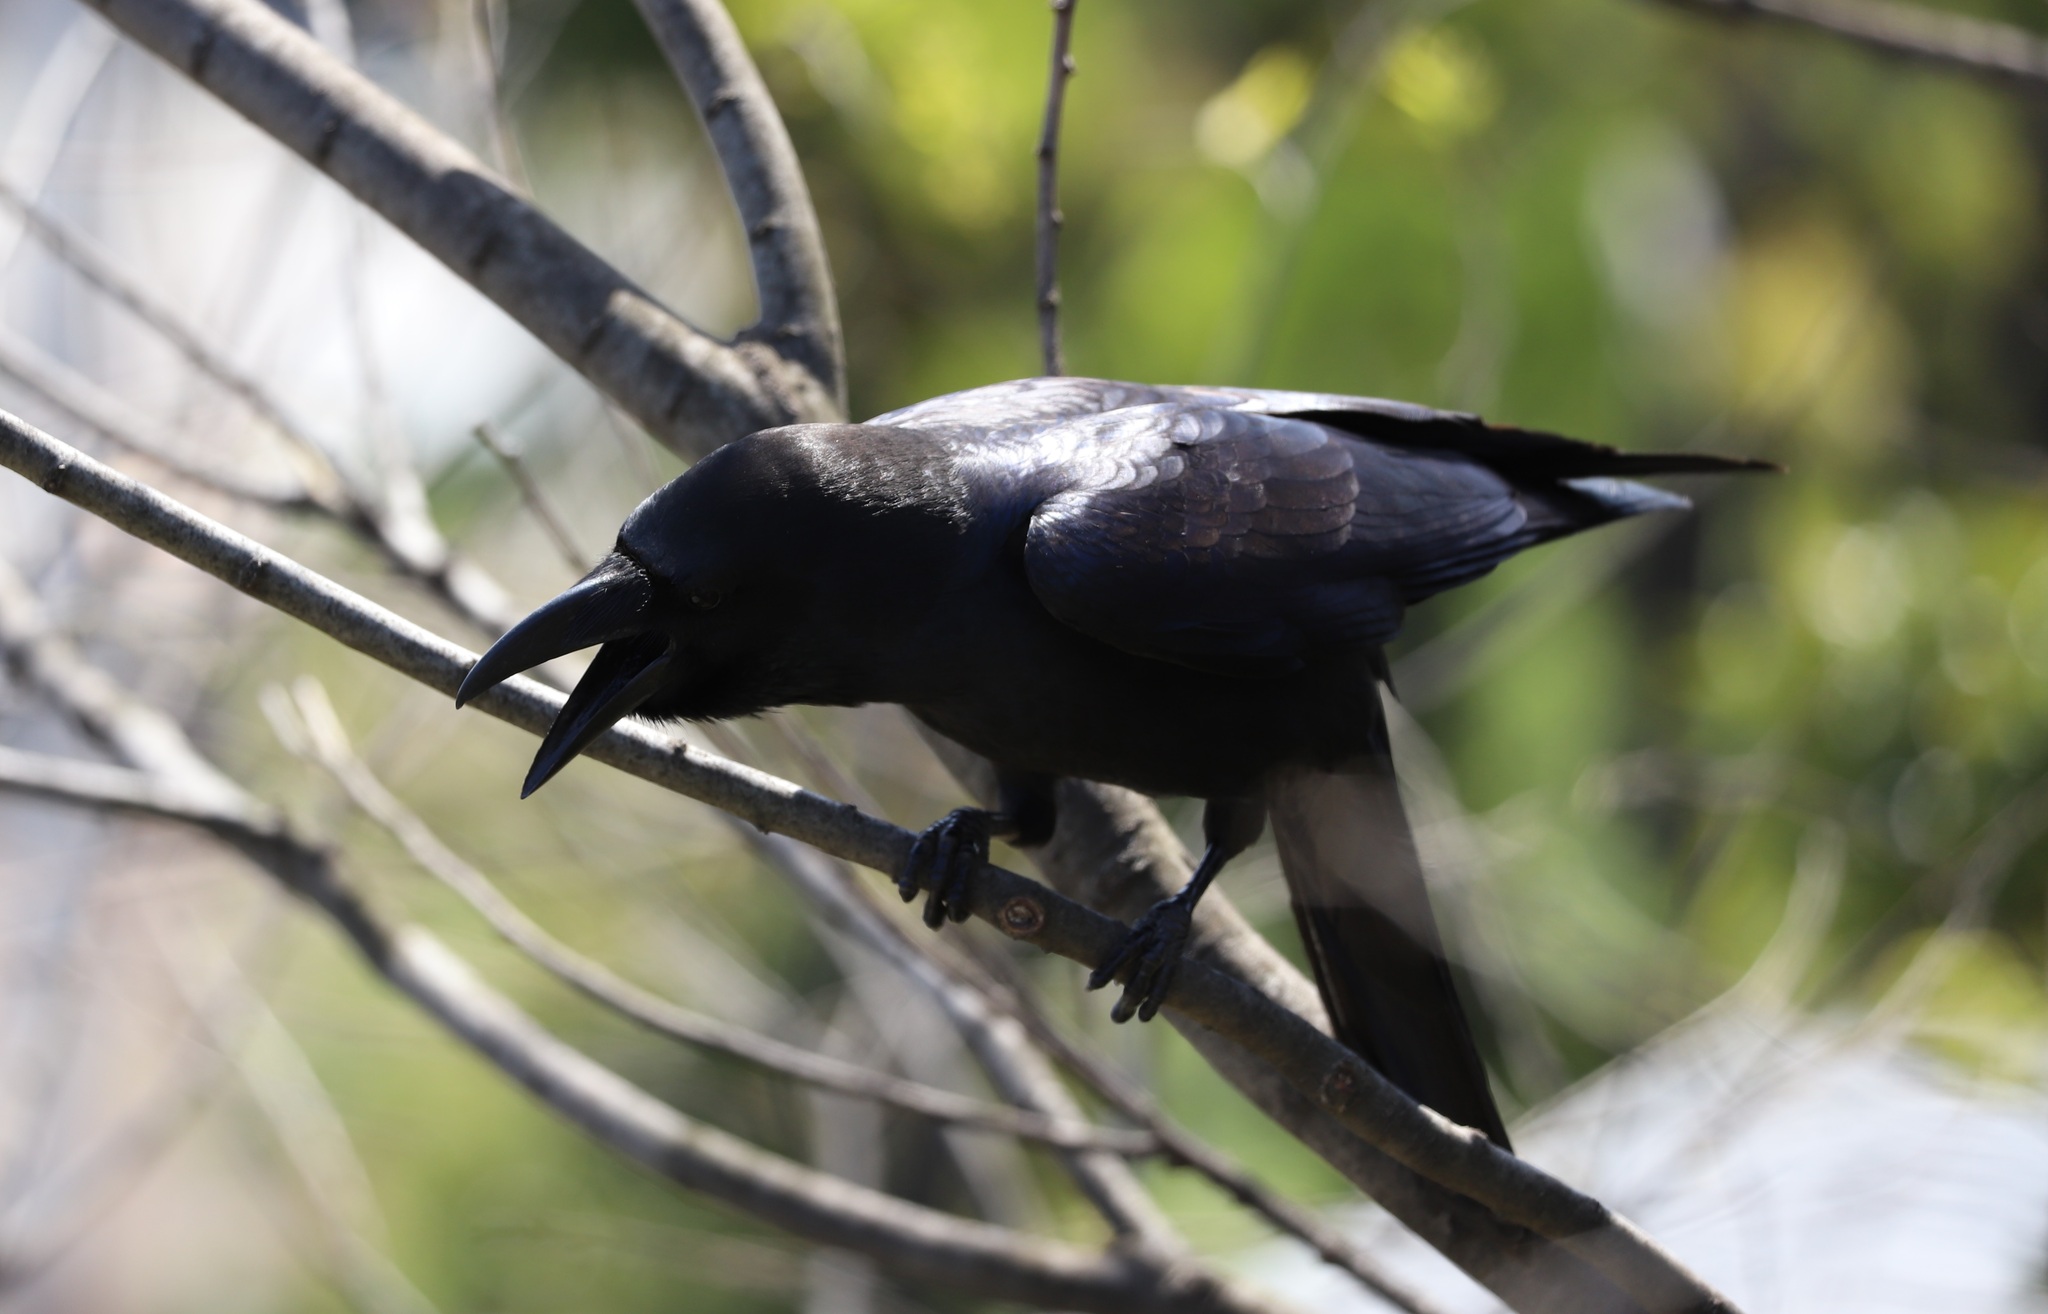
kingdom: Animalia
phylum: Chordata
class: Aves
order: Passeriformes
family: Corvidae
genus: Corvus
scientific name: Corvus macrorhynchos
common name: Large-billed crow
